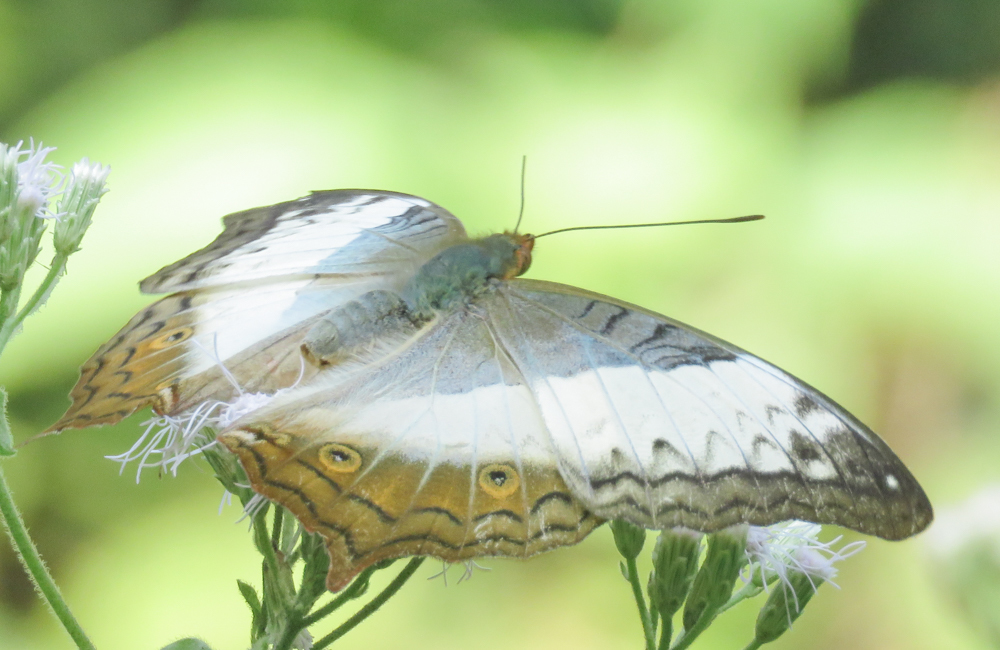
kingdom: Animalia
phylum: Arthropoda
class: Insecta
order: Lepidoptera
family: Nymphalidae
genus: Vindula
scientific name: Vindula erota
